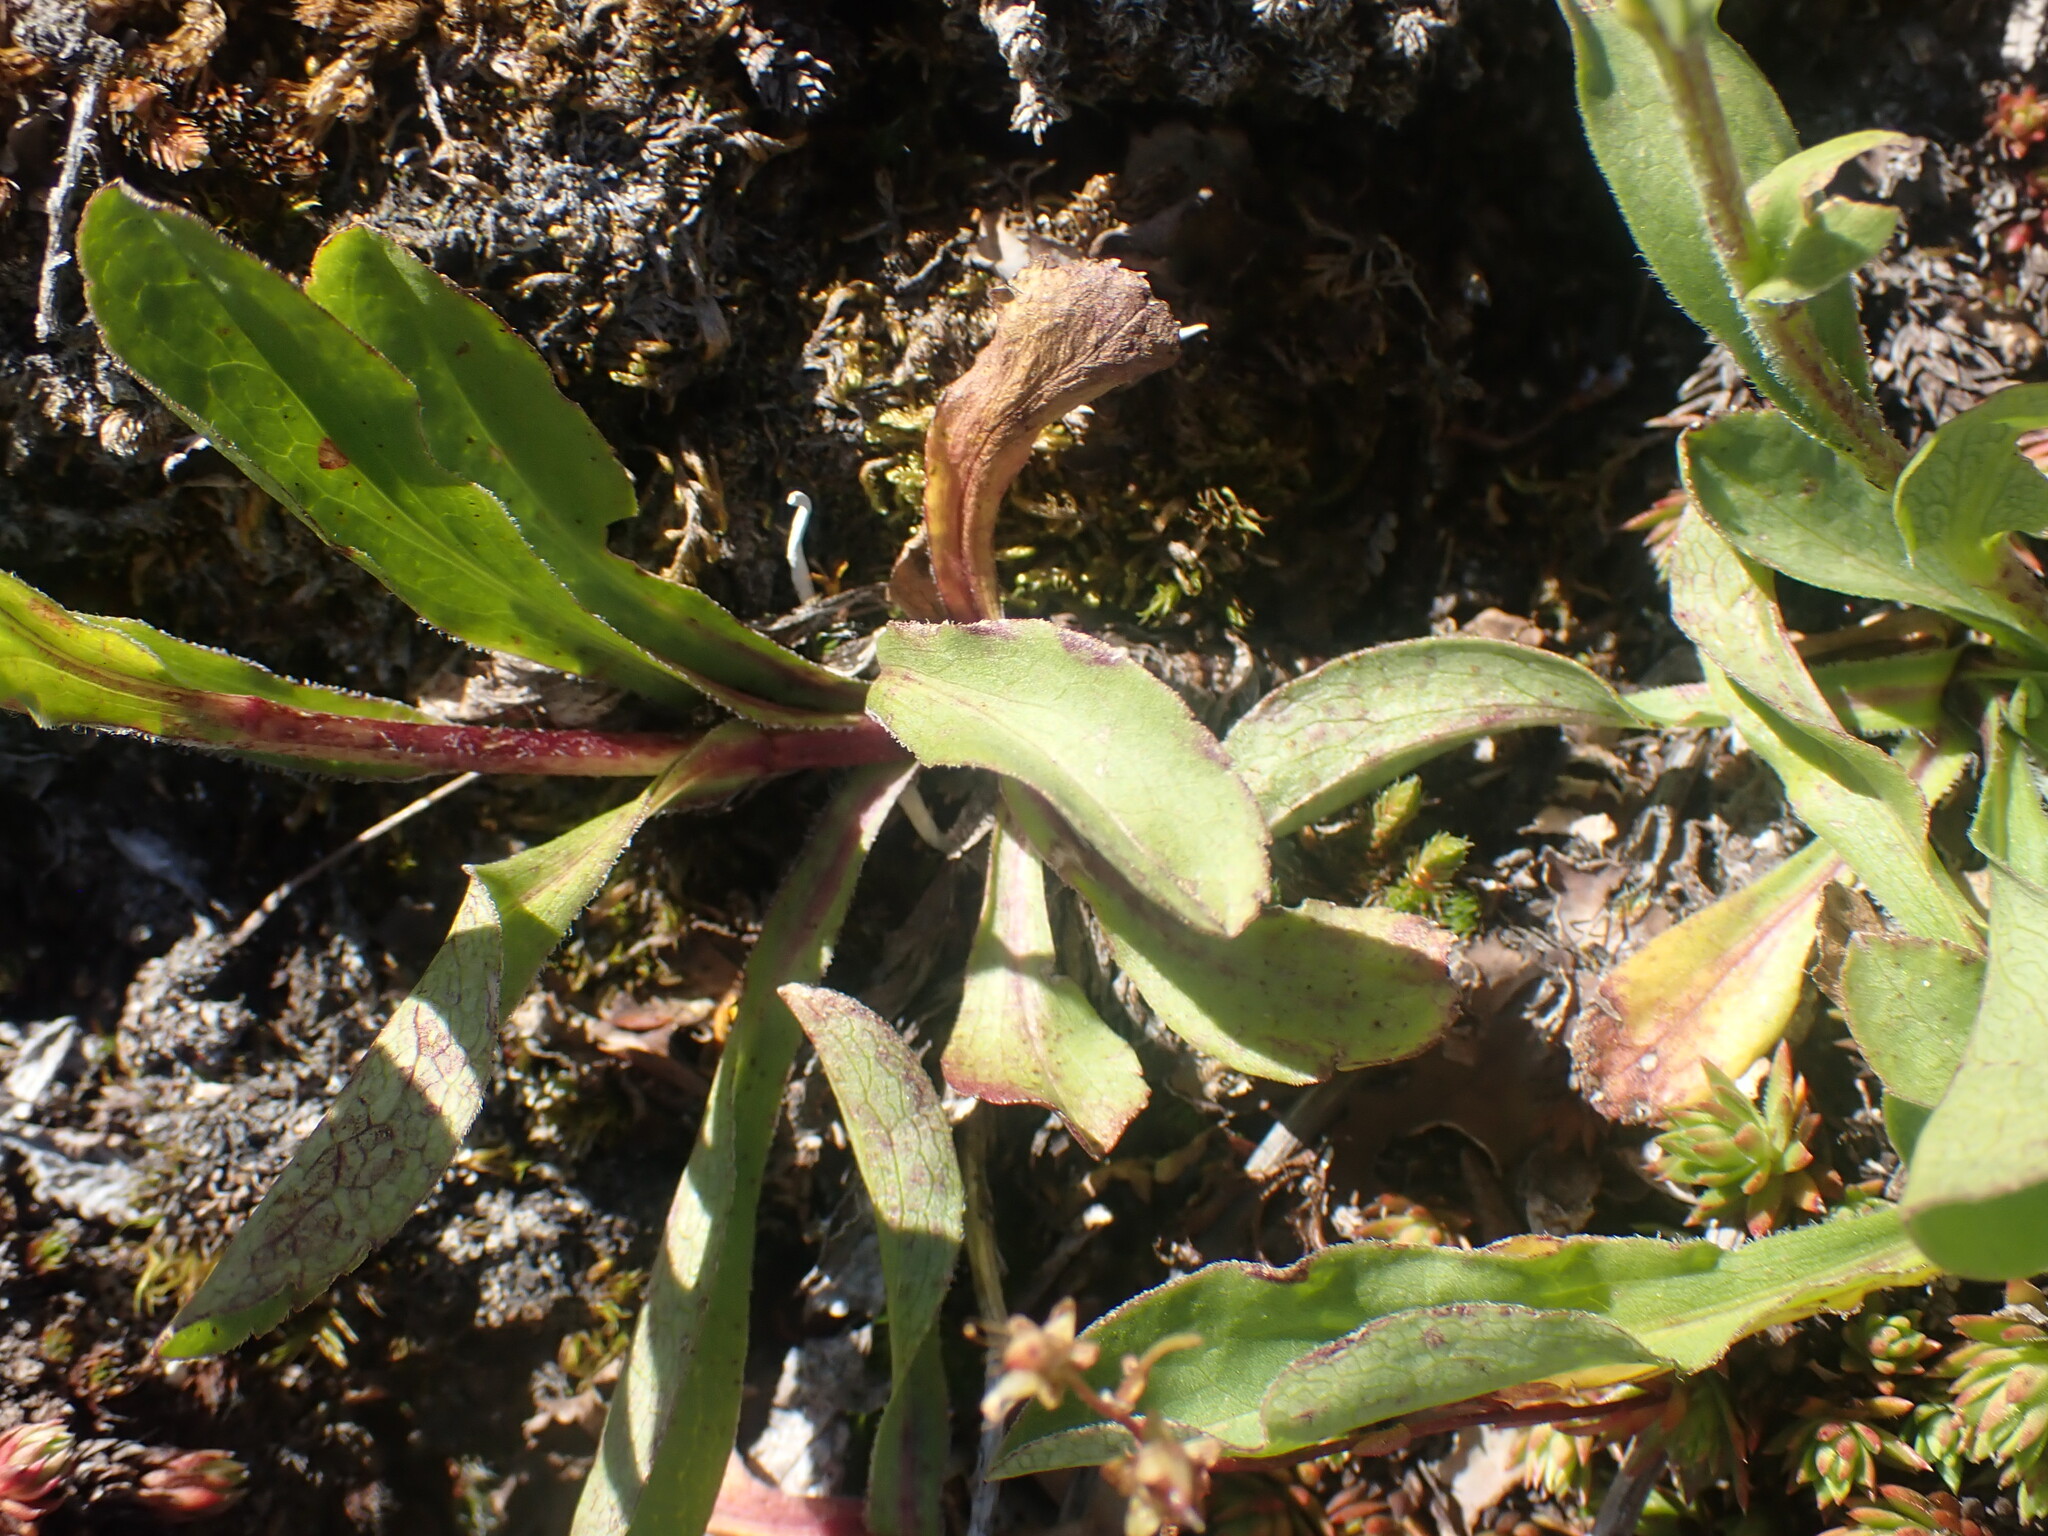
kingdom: Plantae
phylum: Tracheophyta
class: Magnoliopsida
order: Asterales
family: Asteraceae
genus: Solidago
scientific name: Solidago multiradiata
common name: Northern goldenrod
